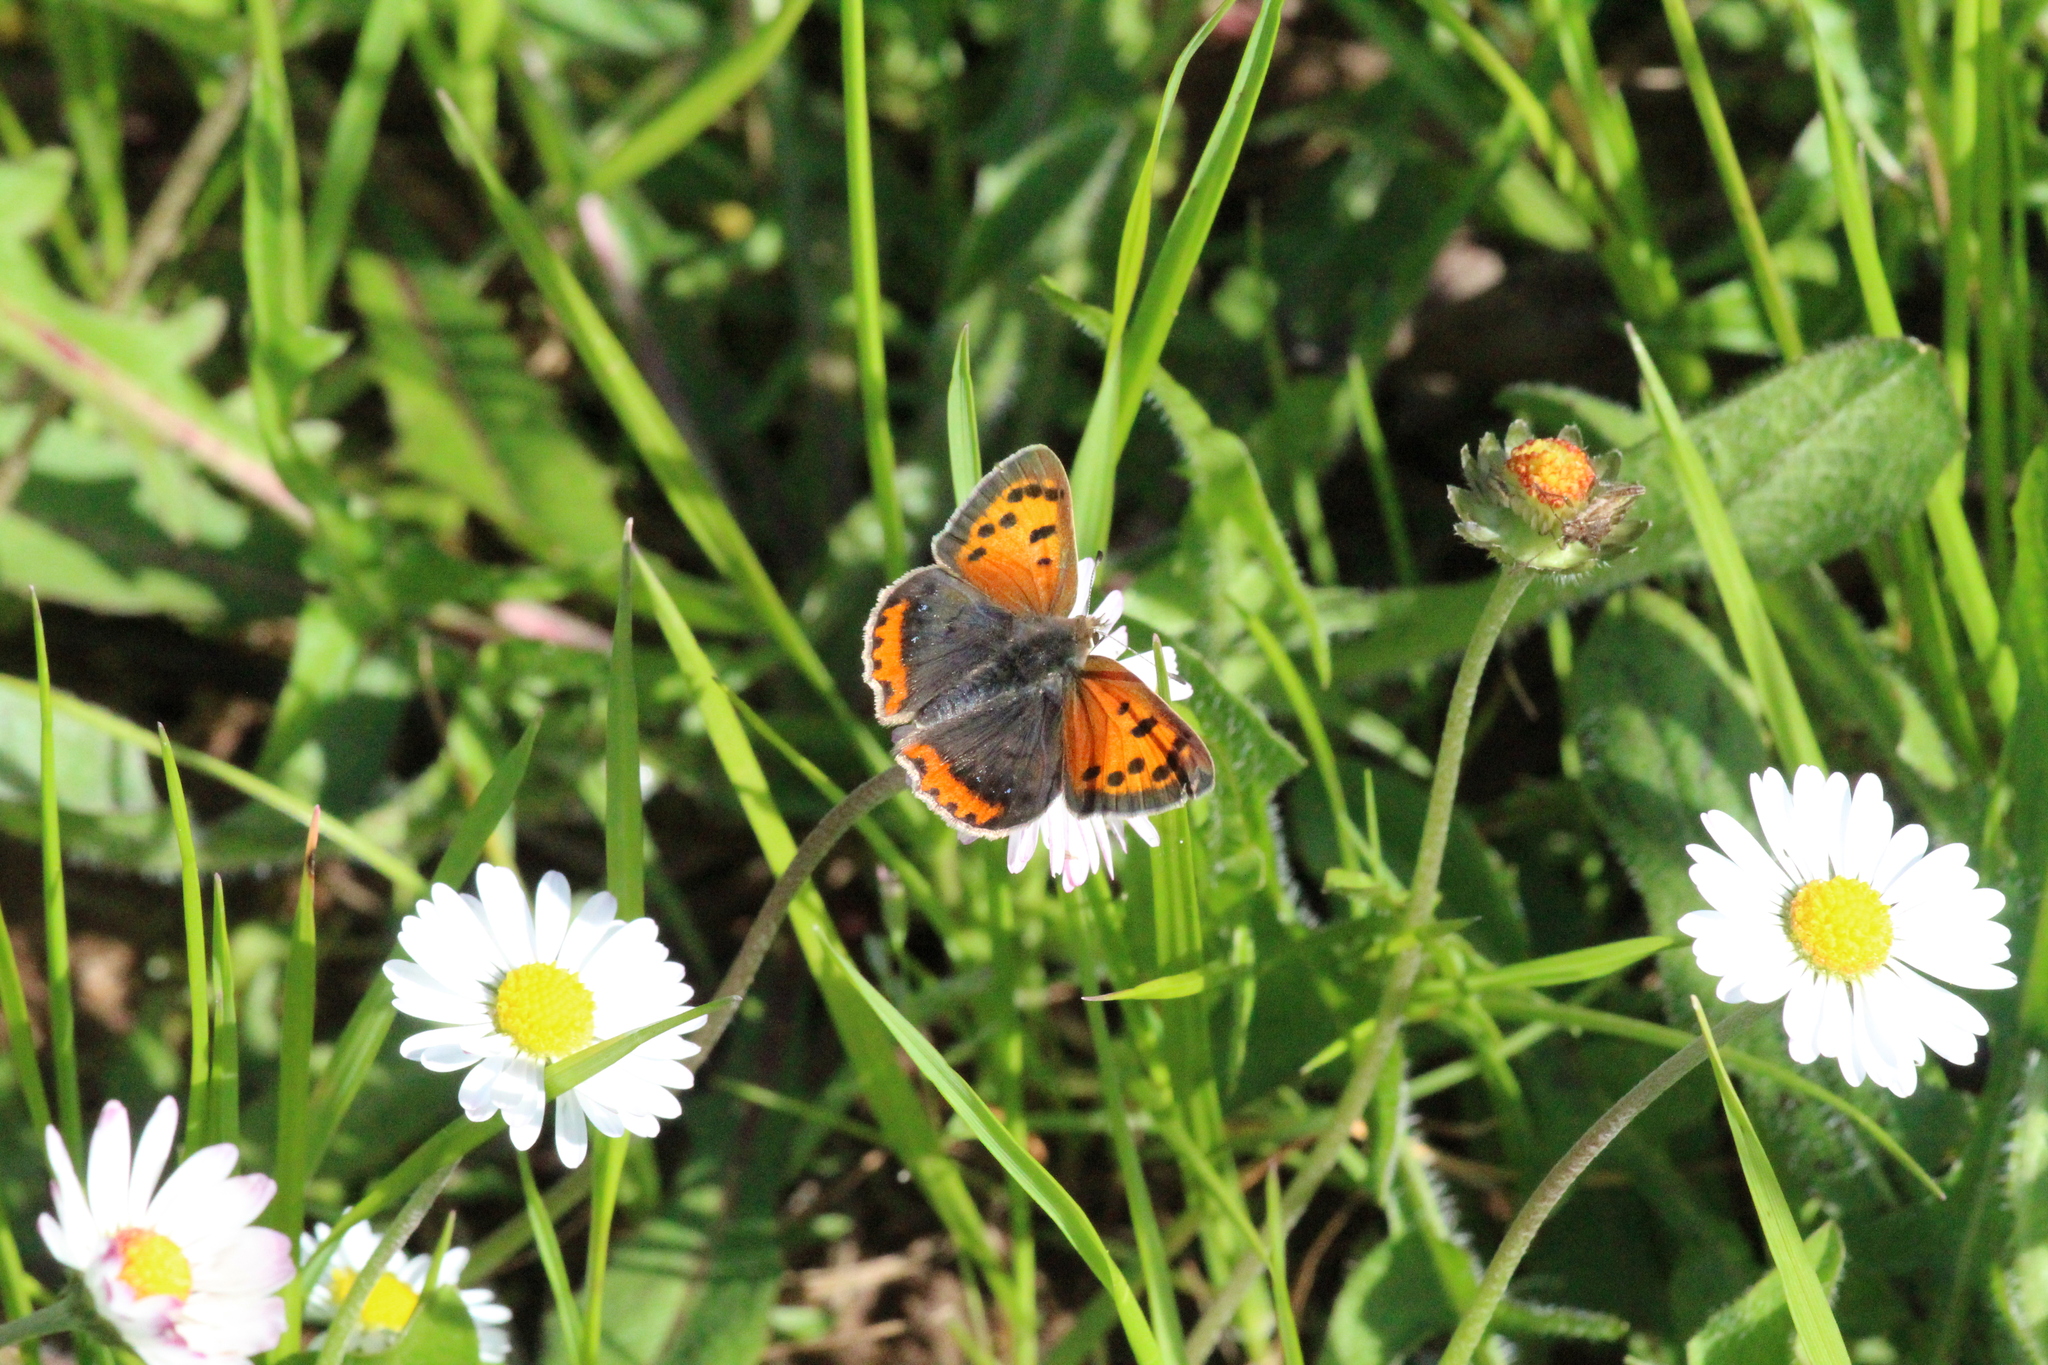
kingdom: Animalia
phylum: Arthropoda
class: Insecta
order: Lepidoptera
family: Lycaenidae
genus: Lycaena
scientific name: Lycaena phlaeas
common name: Small copper
